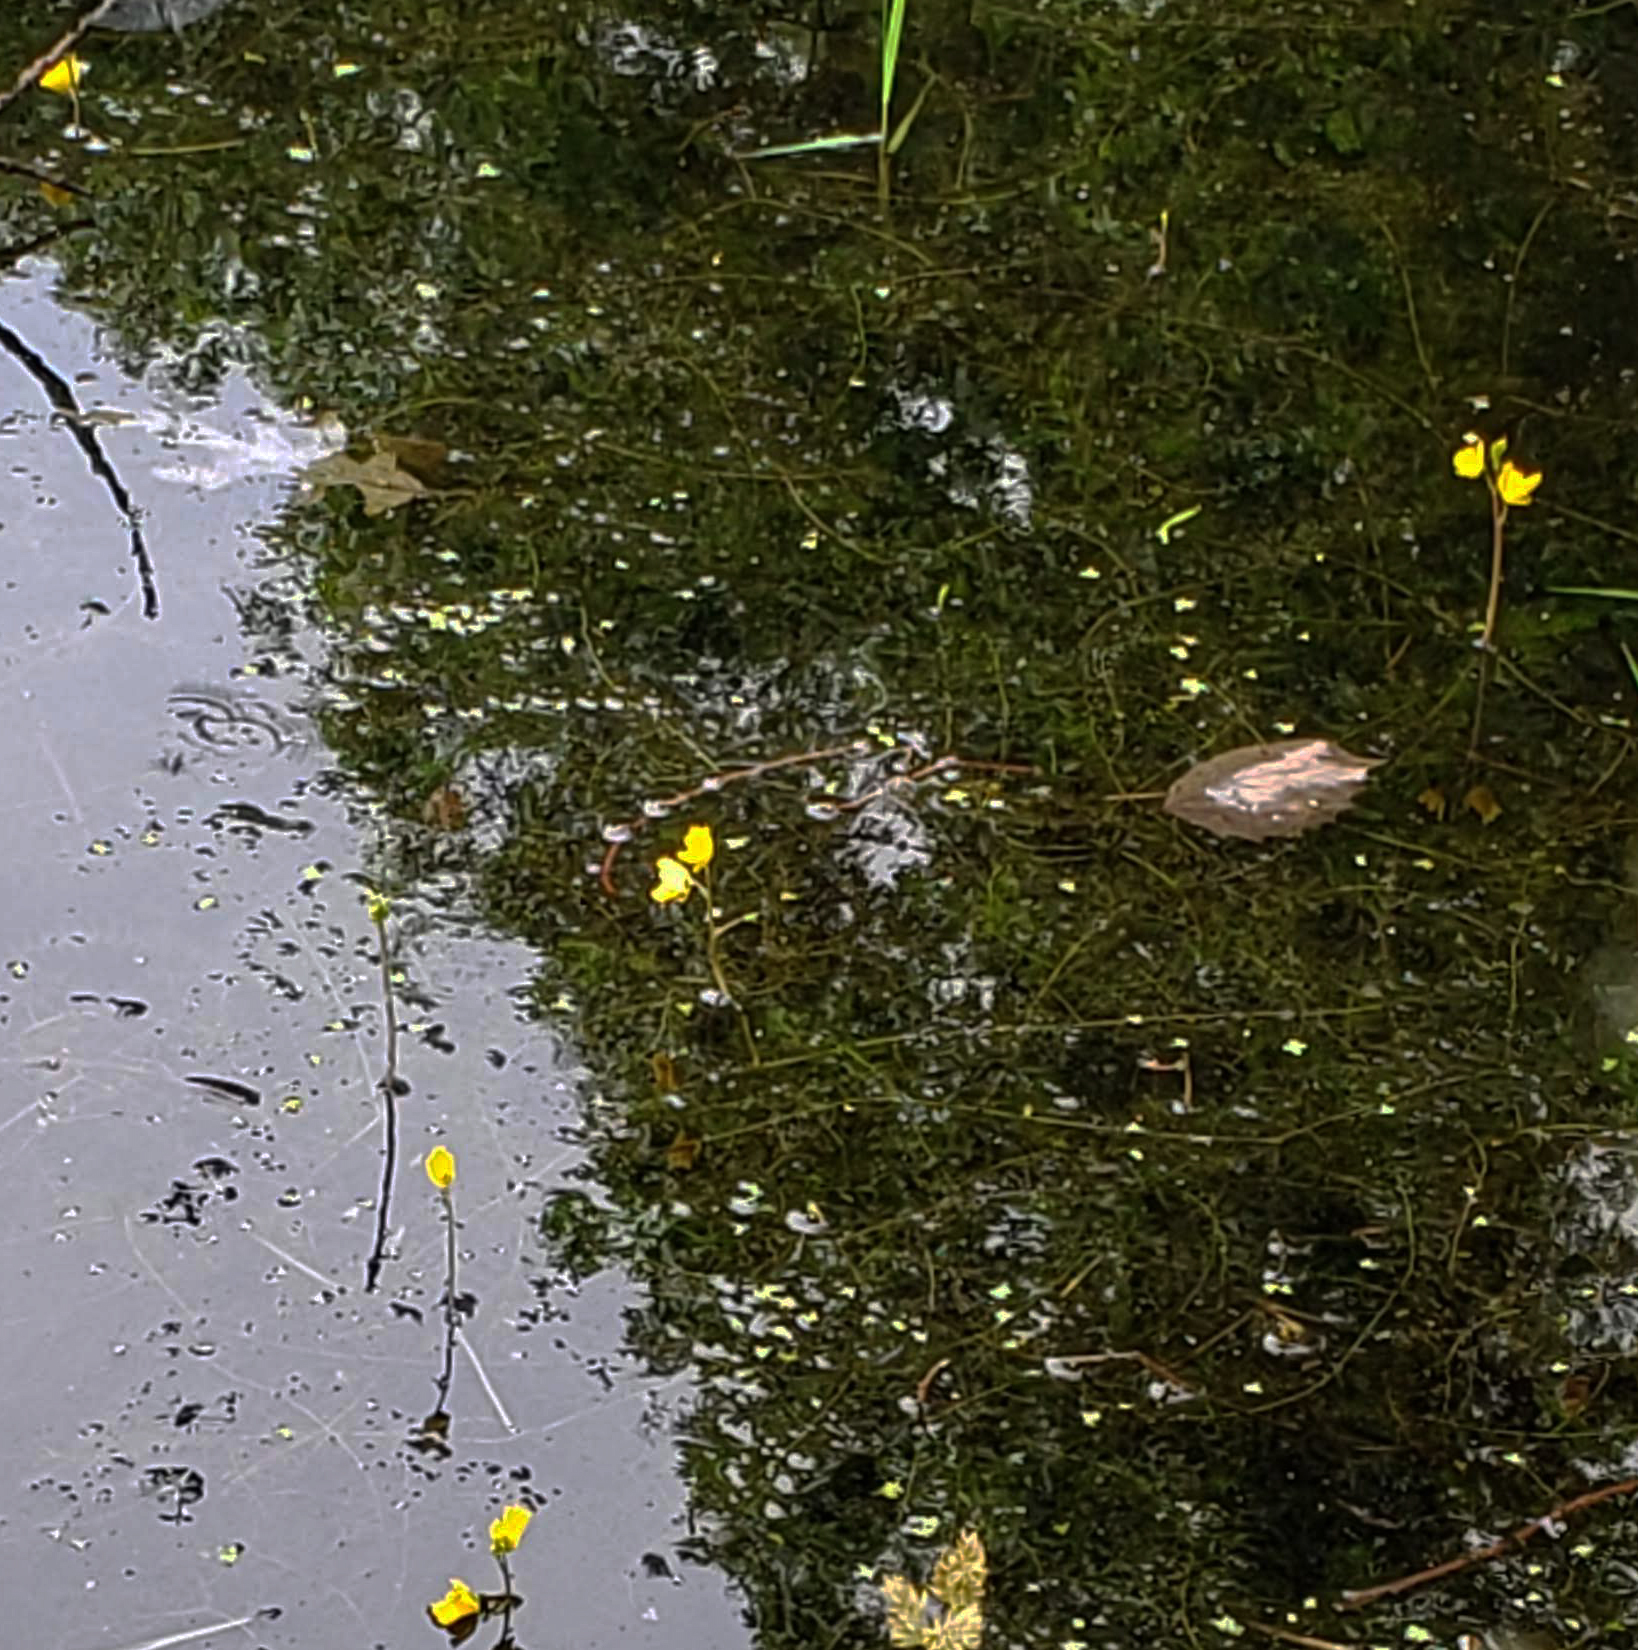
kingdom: Plantae
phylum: Tracheophyta
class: Magnoliopsida
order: Lamiales
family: Lentibulariaceae
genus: Utricularia
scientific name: Utricularia macrorhiza
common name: Common bladderwort
